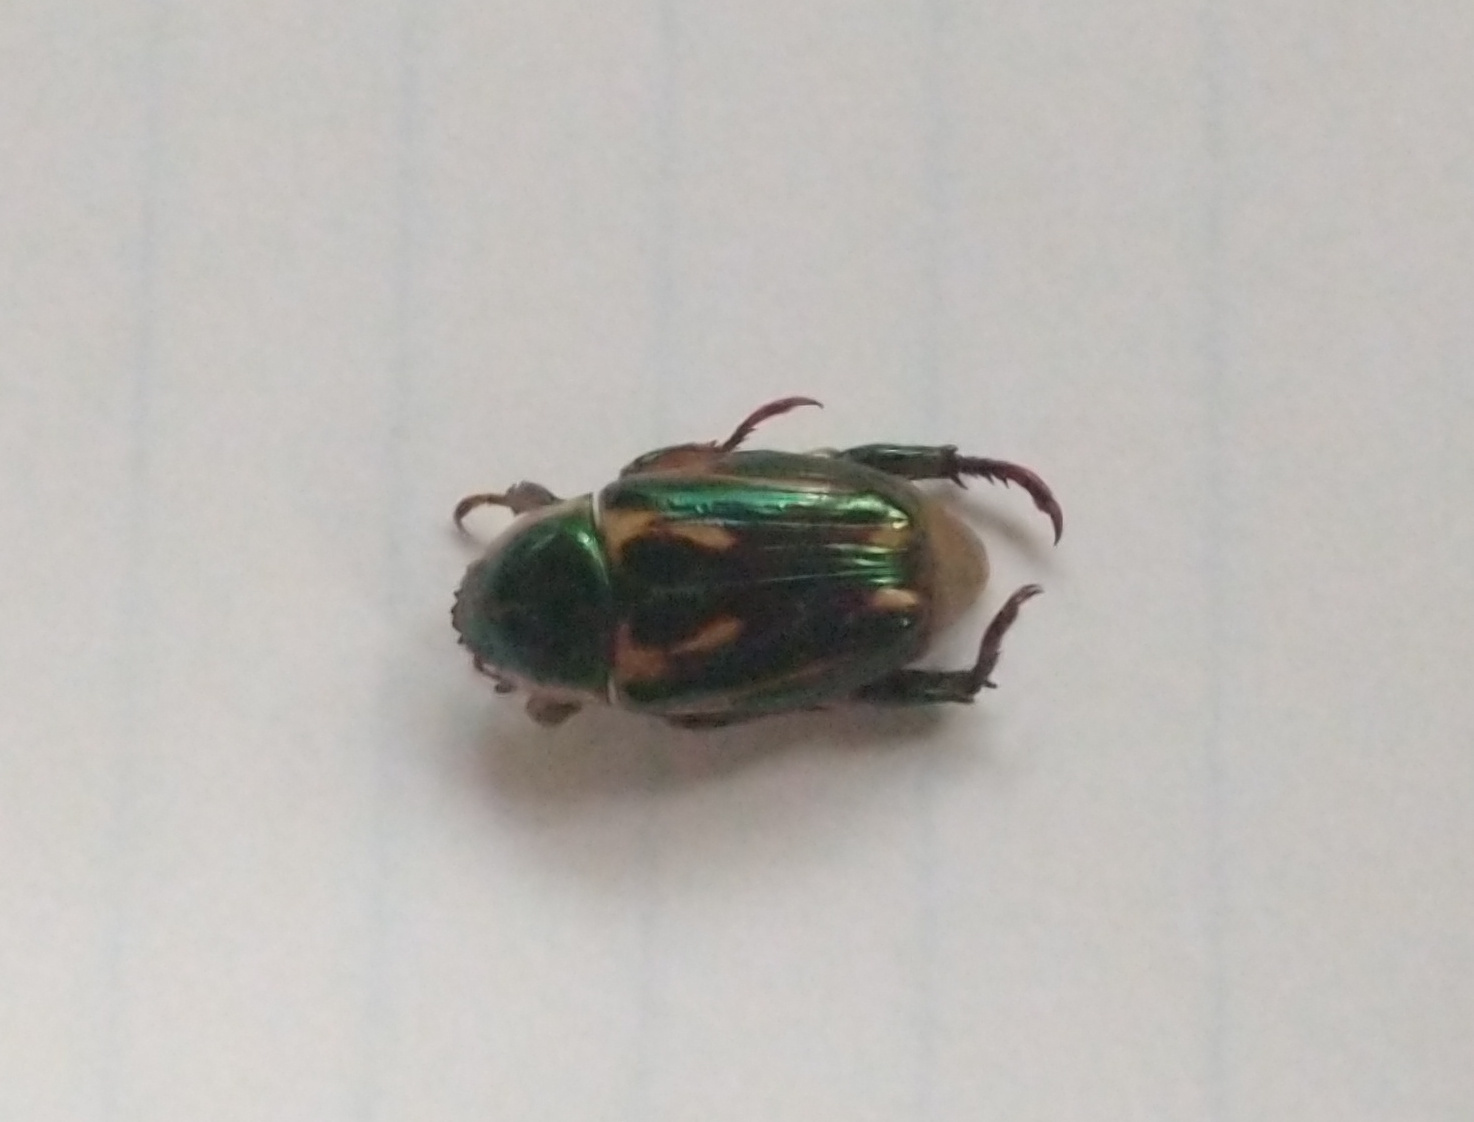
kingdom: Animalia
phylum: Arthropoda
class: Insecta
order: Coleoptera
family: Scarabaeidae
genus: Pelidnota
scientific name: Pelidnota liturella
